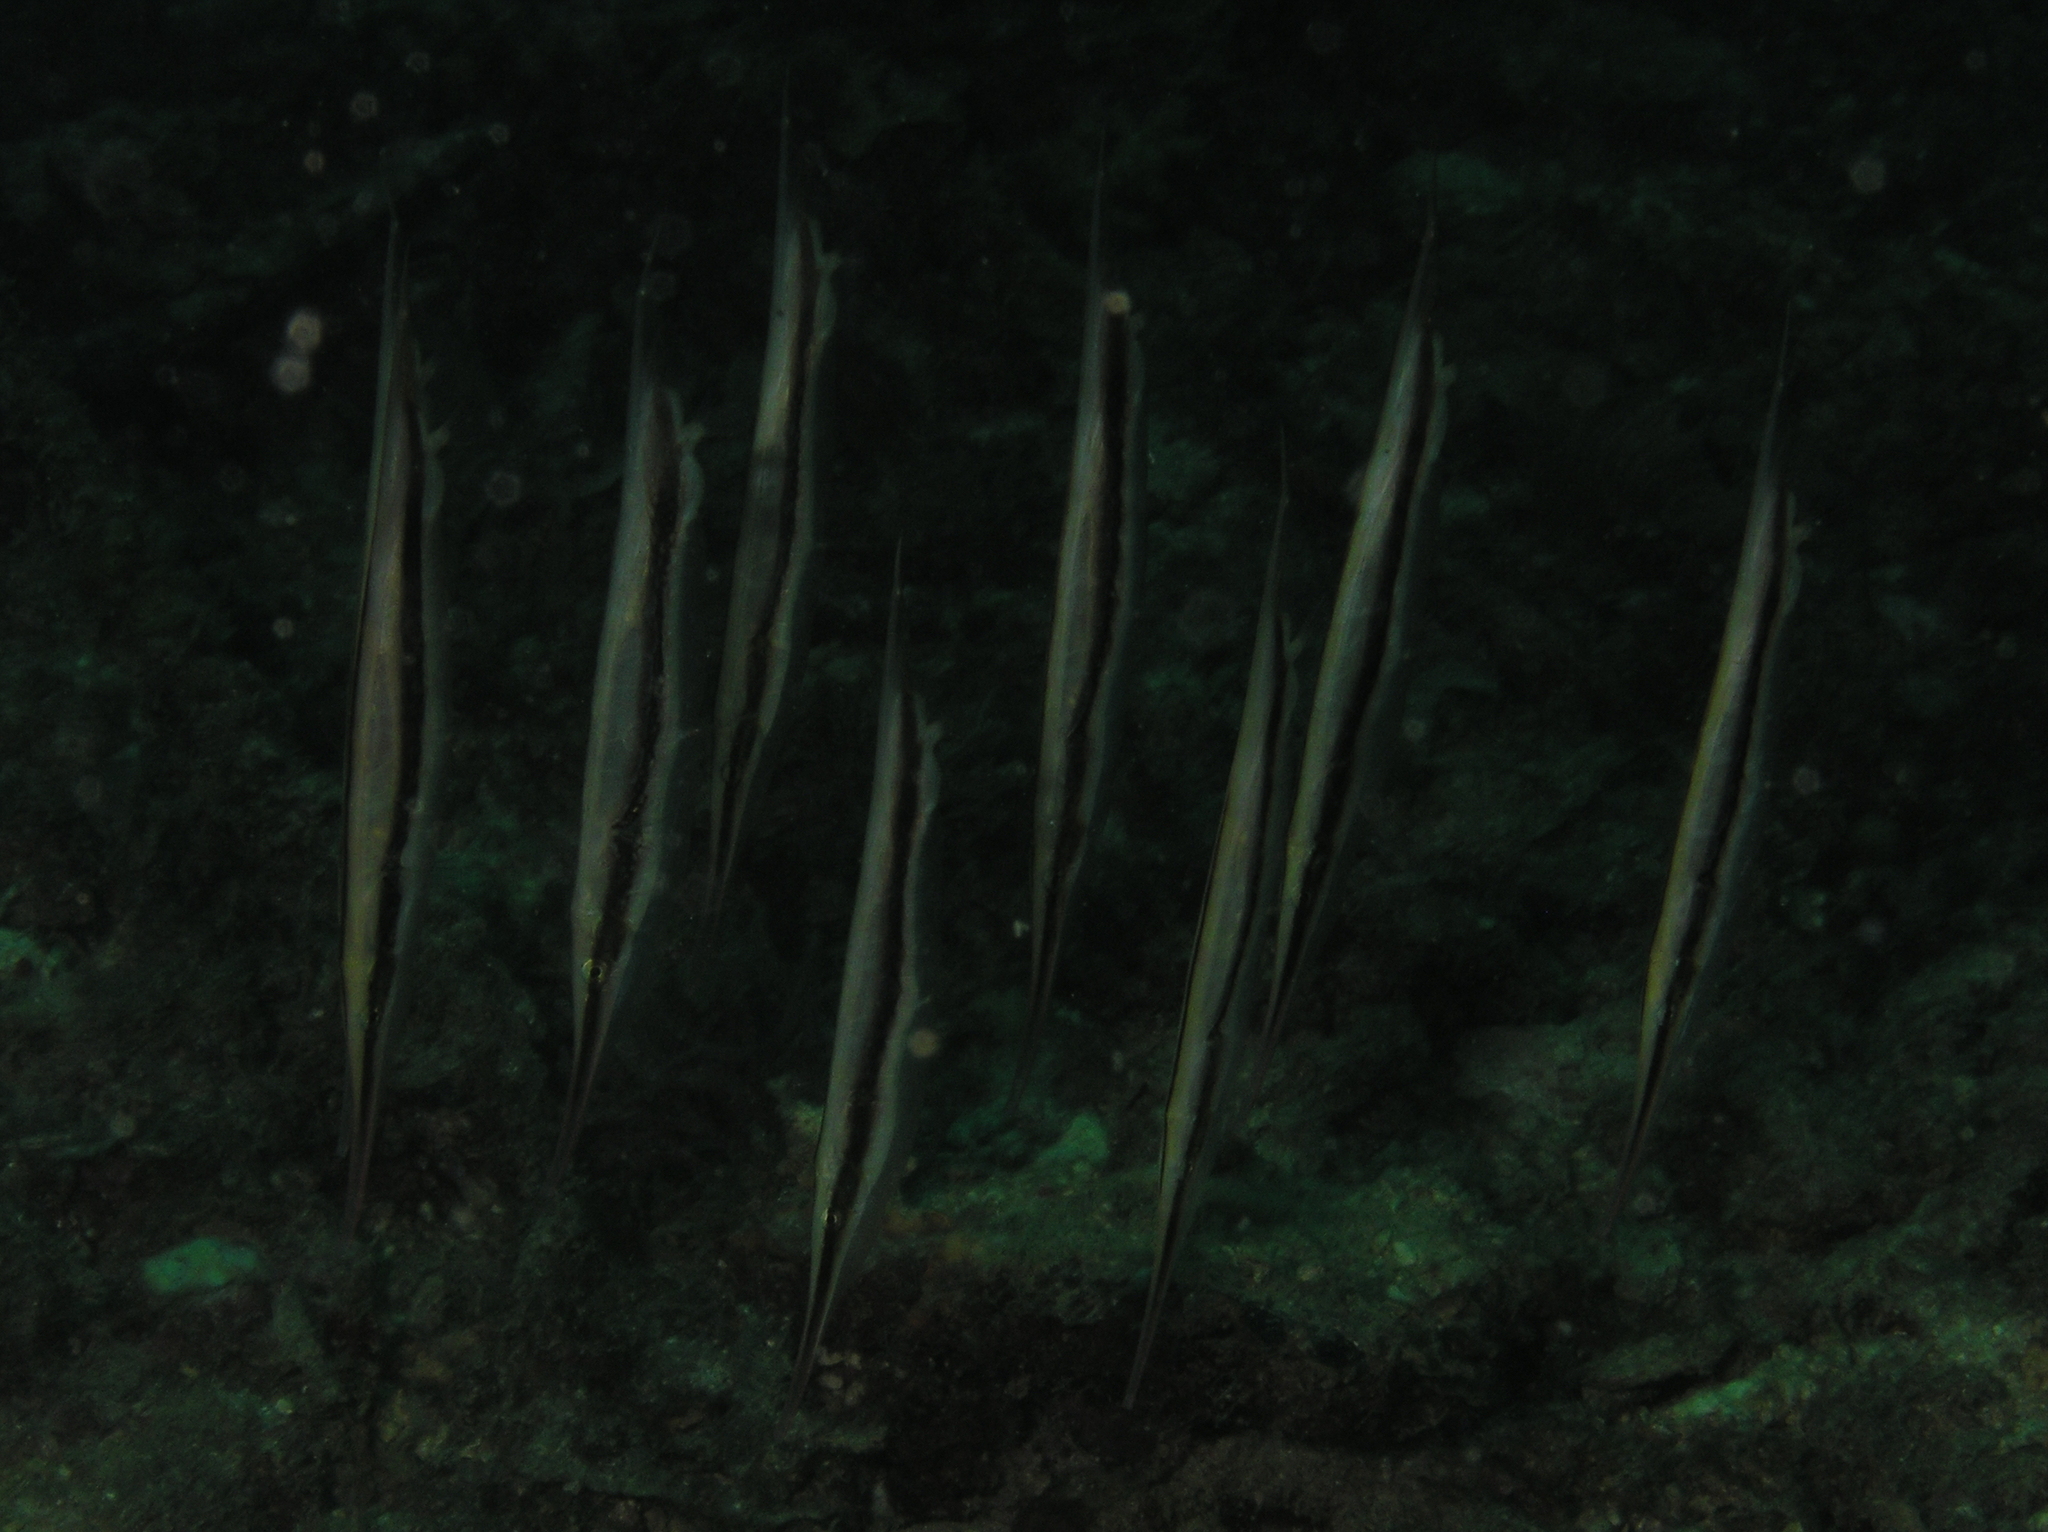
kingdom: Animalia
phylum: Chordata
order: Syngnathiformes
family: Centriscidae
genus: Aeoliscus
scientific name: Aeoliscus strigatus
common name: Canif
